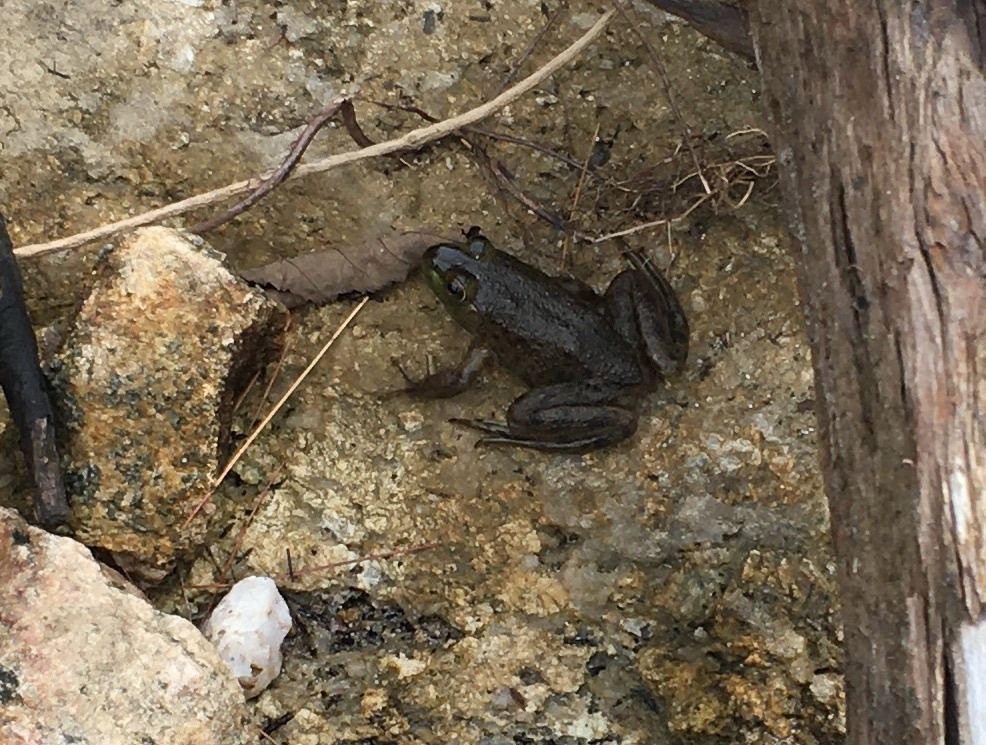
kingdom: Animalia
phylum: Chordata
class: Amphibia
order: Anura
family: Ranidae
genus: Lithobates
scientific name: Lithobates catesbeianus
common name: American bullfrog
